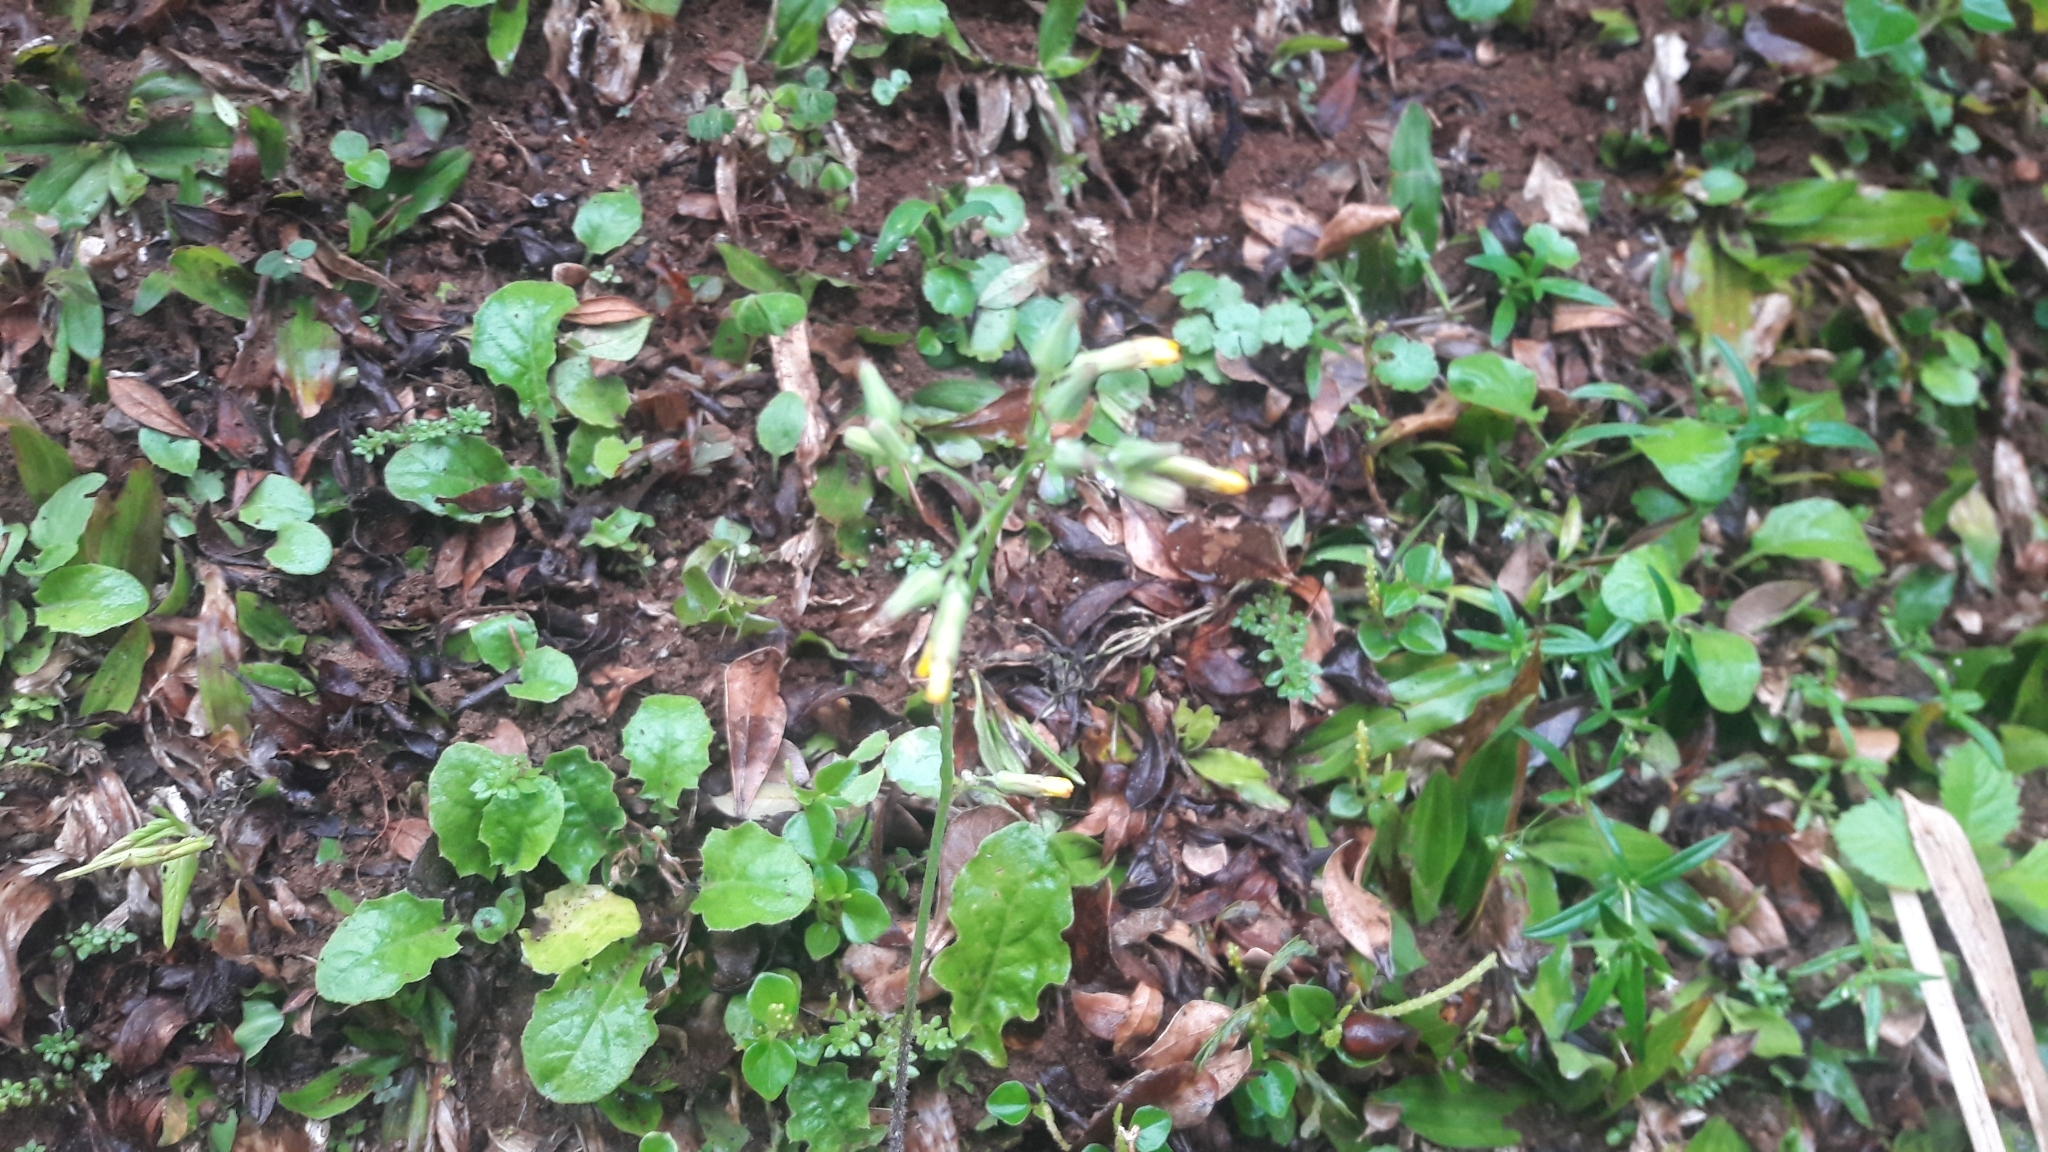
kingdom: Plantae
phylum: Tracheophyta
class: Magnoliopsida
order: Asterales
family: Asteraceae
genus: Youngia
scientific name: Youngia japonica
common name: Oriental false hawksbeard
